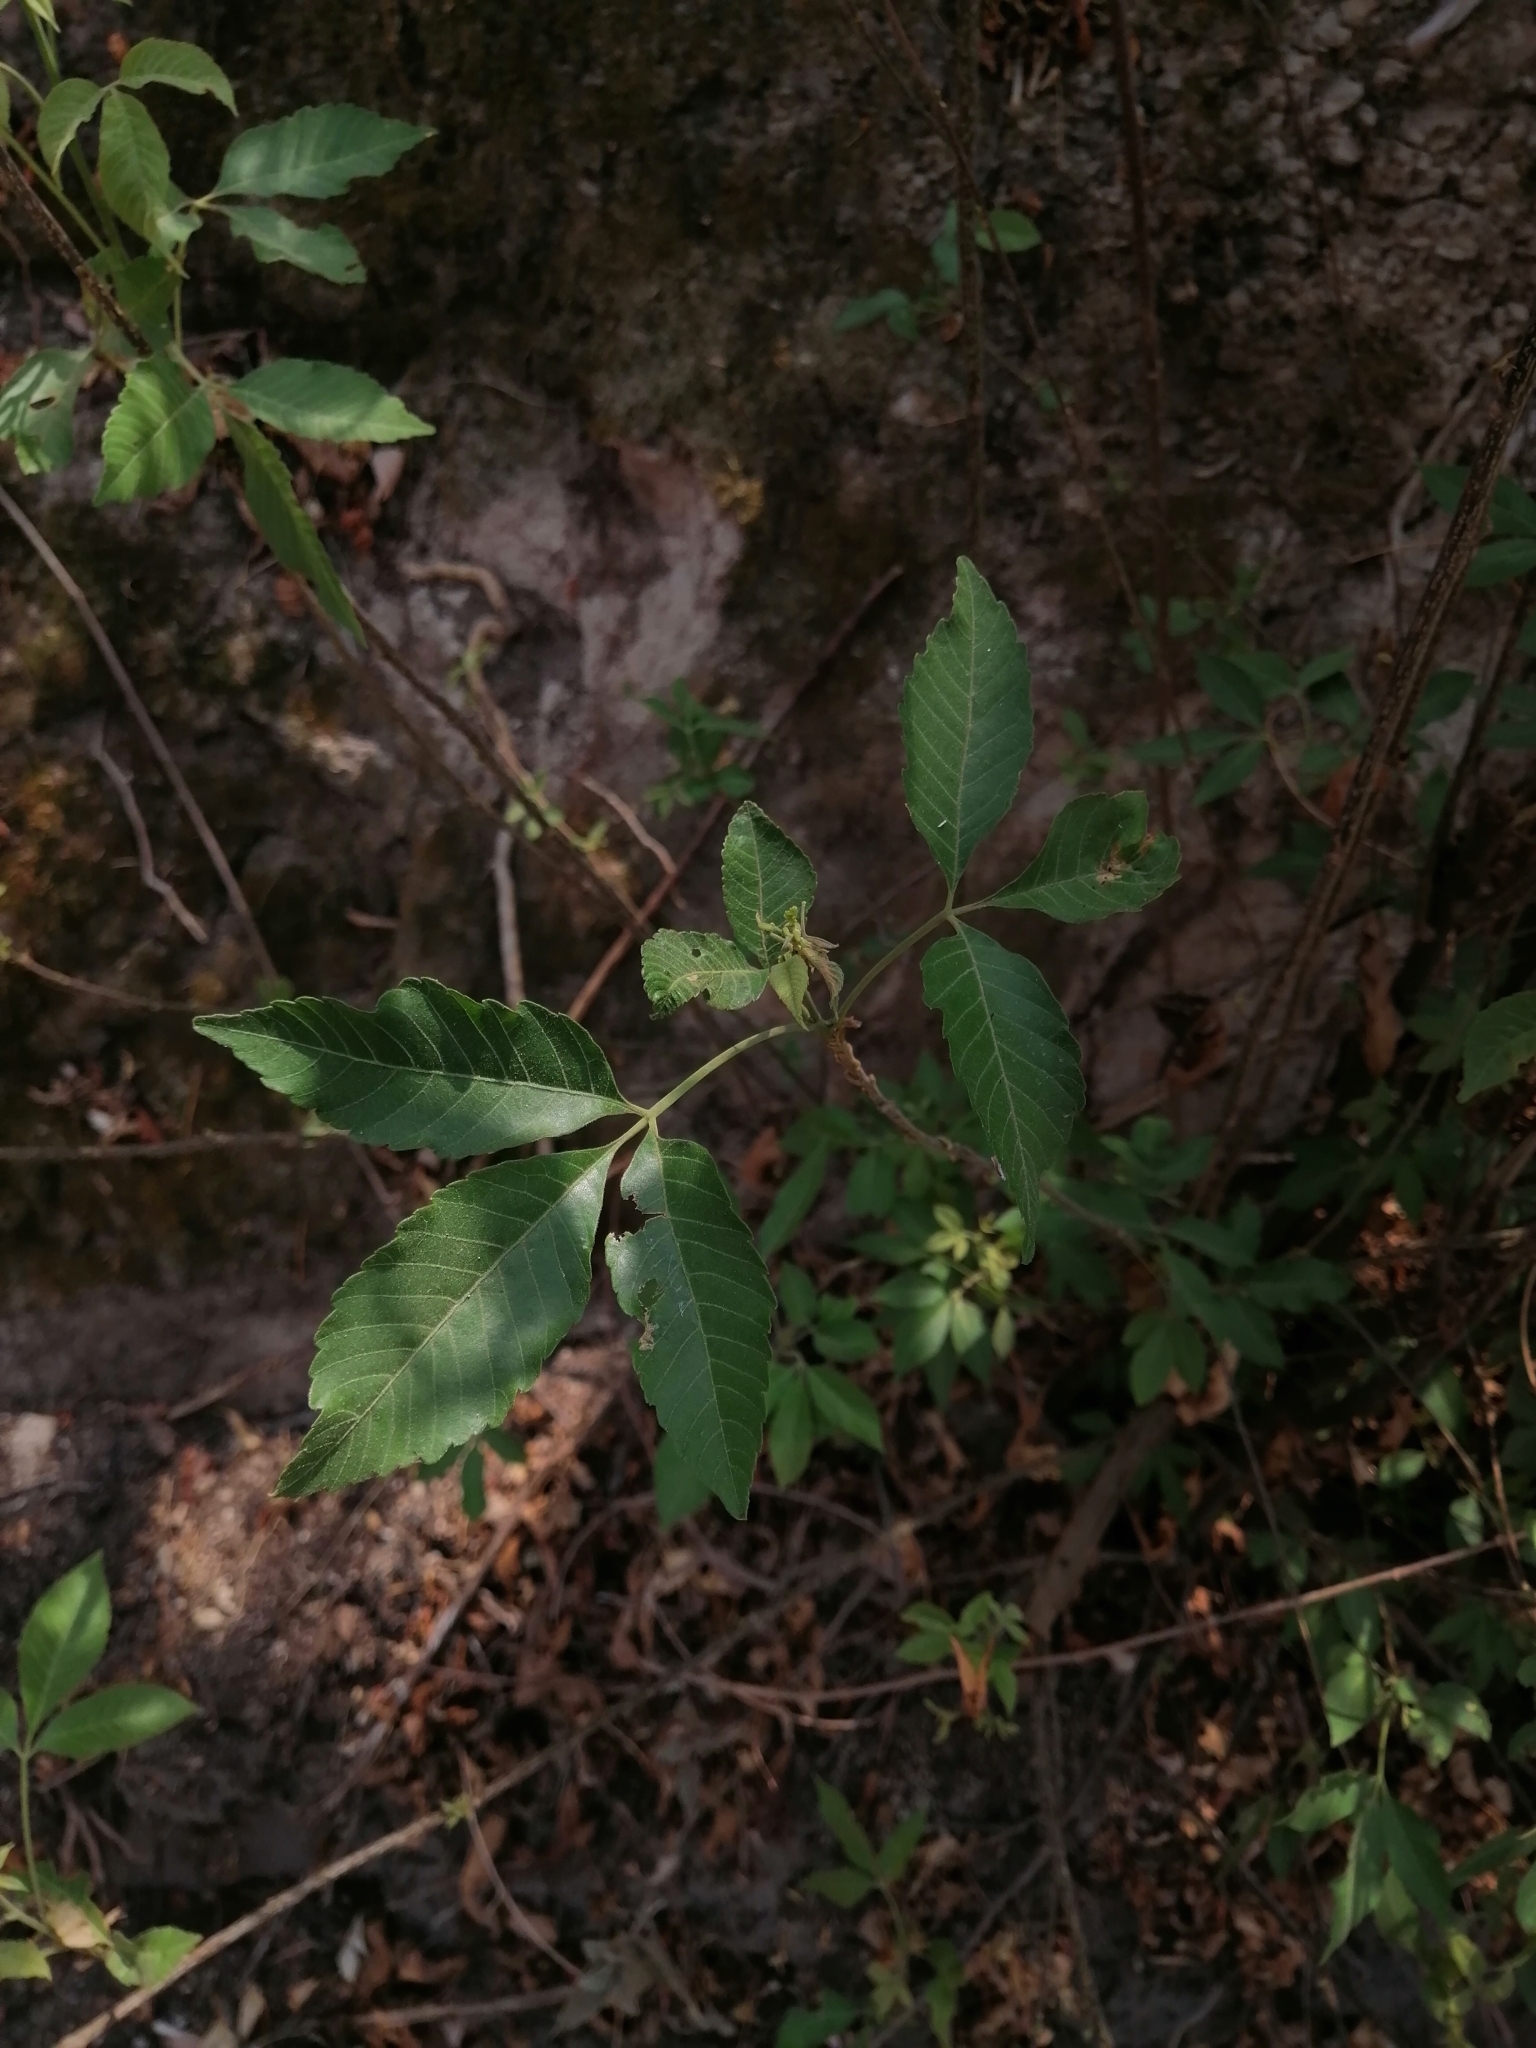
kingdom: Plantae
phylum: Tracheophyta
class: Magnoliopsida
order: Sapindales
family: Sapindaceae
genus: Thouinia
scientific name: Thouinia serrata
